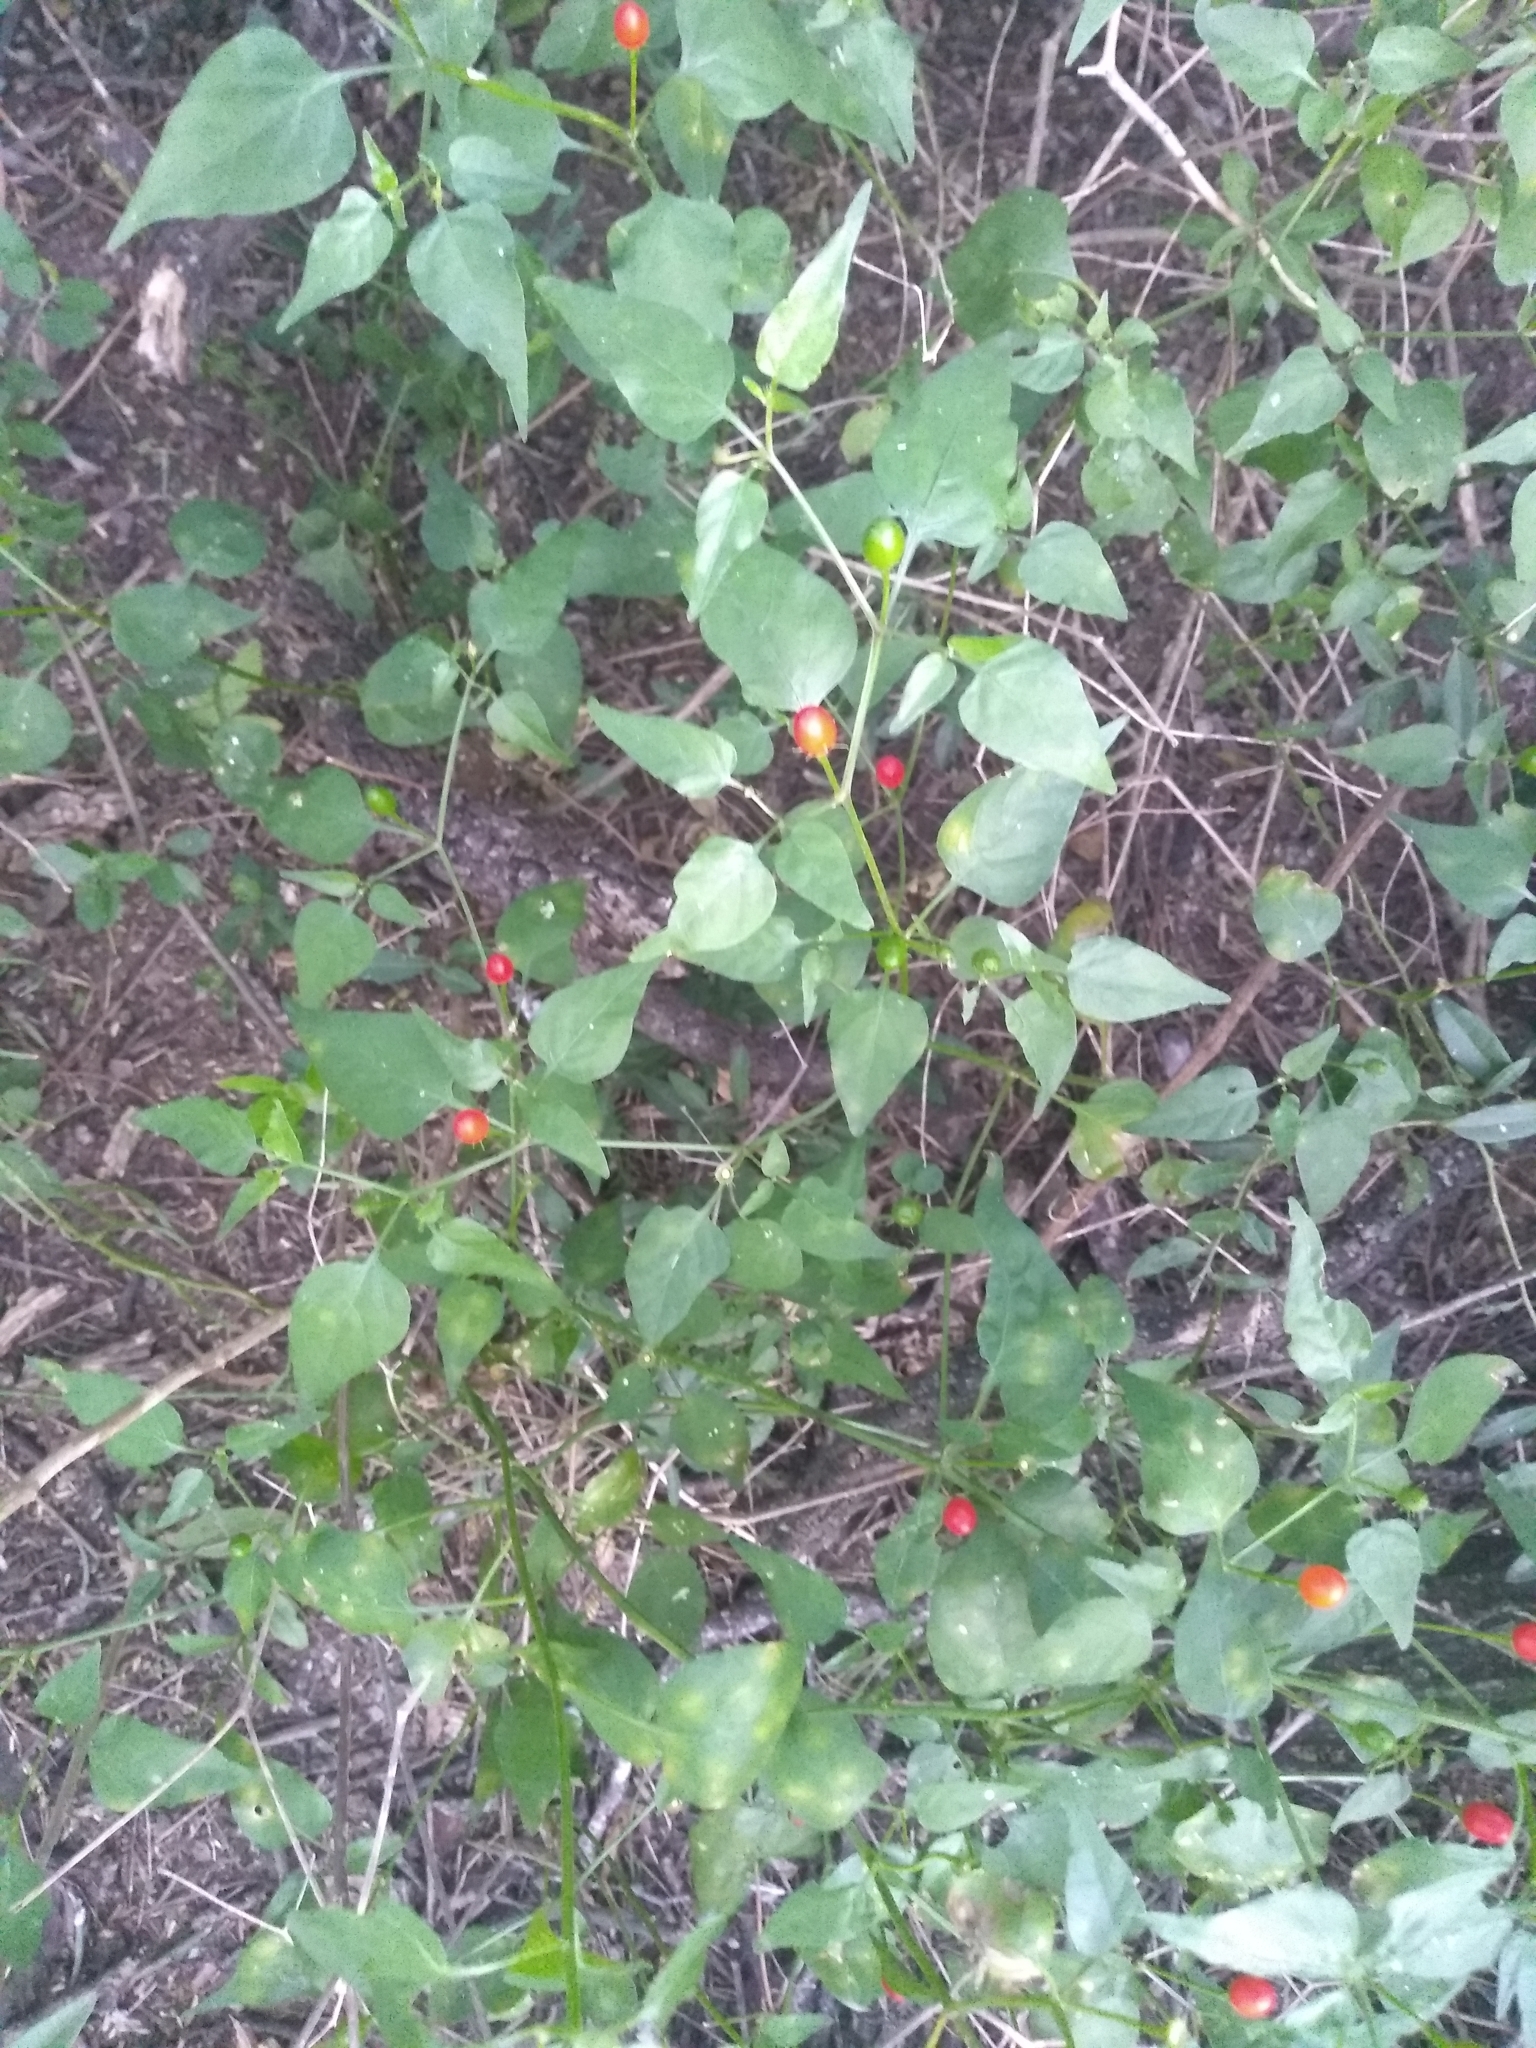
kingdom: Plantae
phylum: Tracheophyta
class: Magnoliopsida
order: Solanales
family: Solanaceae
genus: Capsicum
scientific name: Capsicum chacoense
